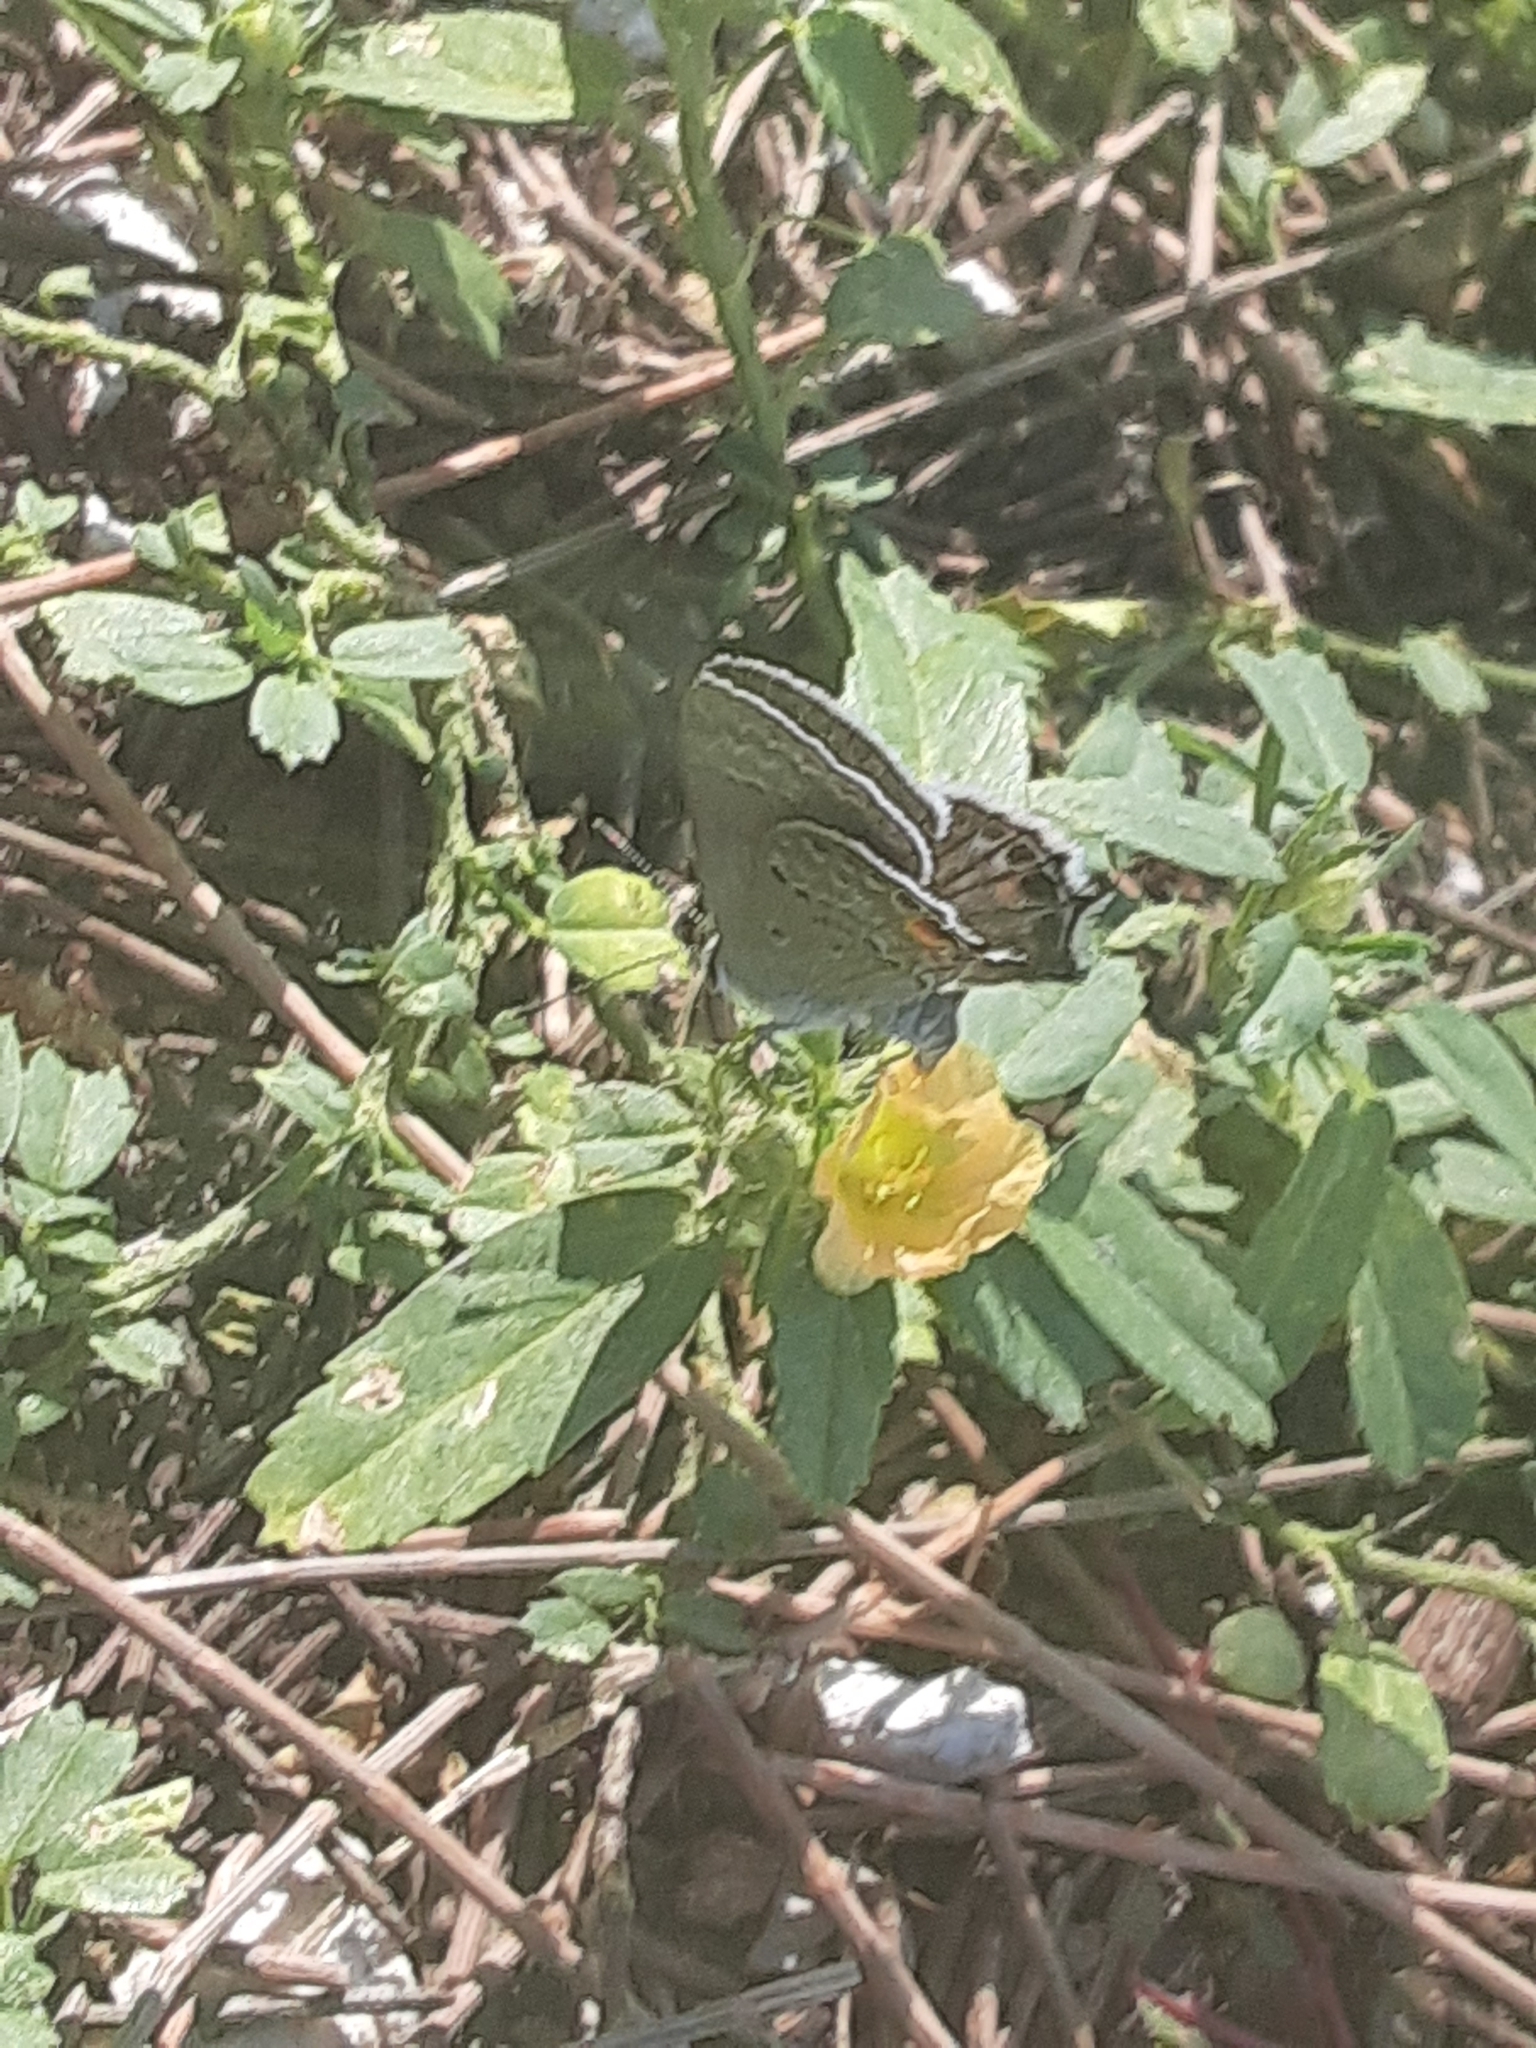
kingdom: Animalia
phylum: Arthropoda
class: Insecta
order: Lepidoptera
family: Lycaenidae
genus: Callicista
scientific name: Callicista columella
